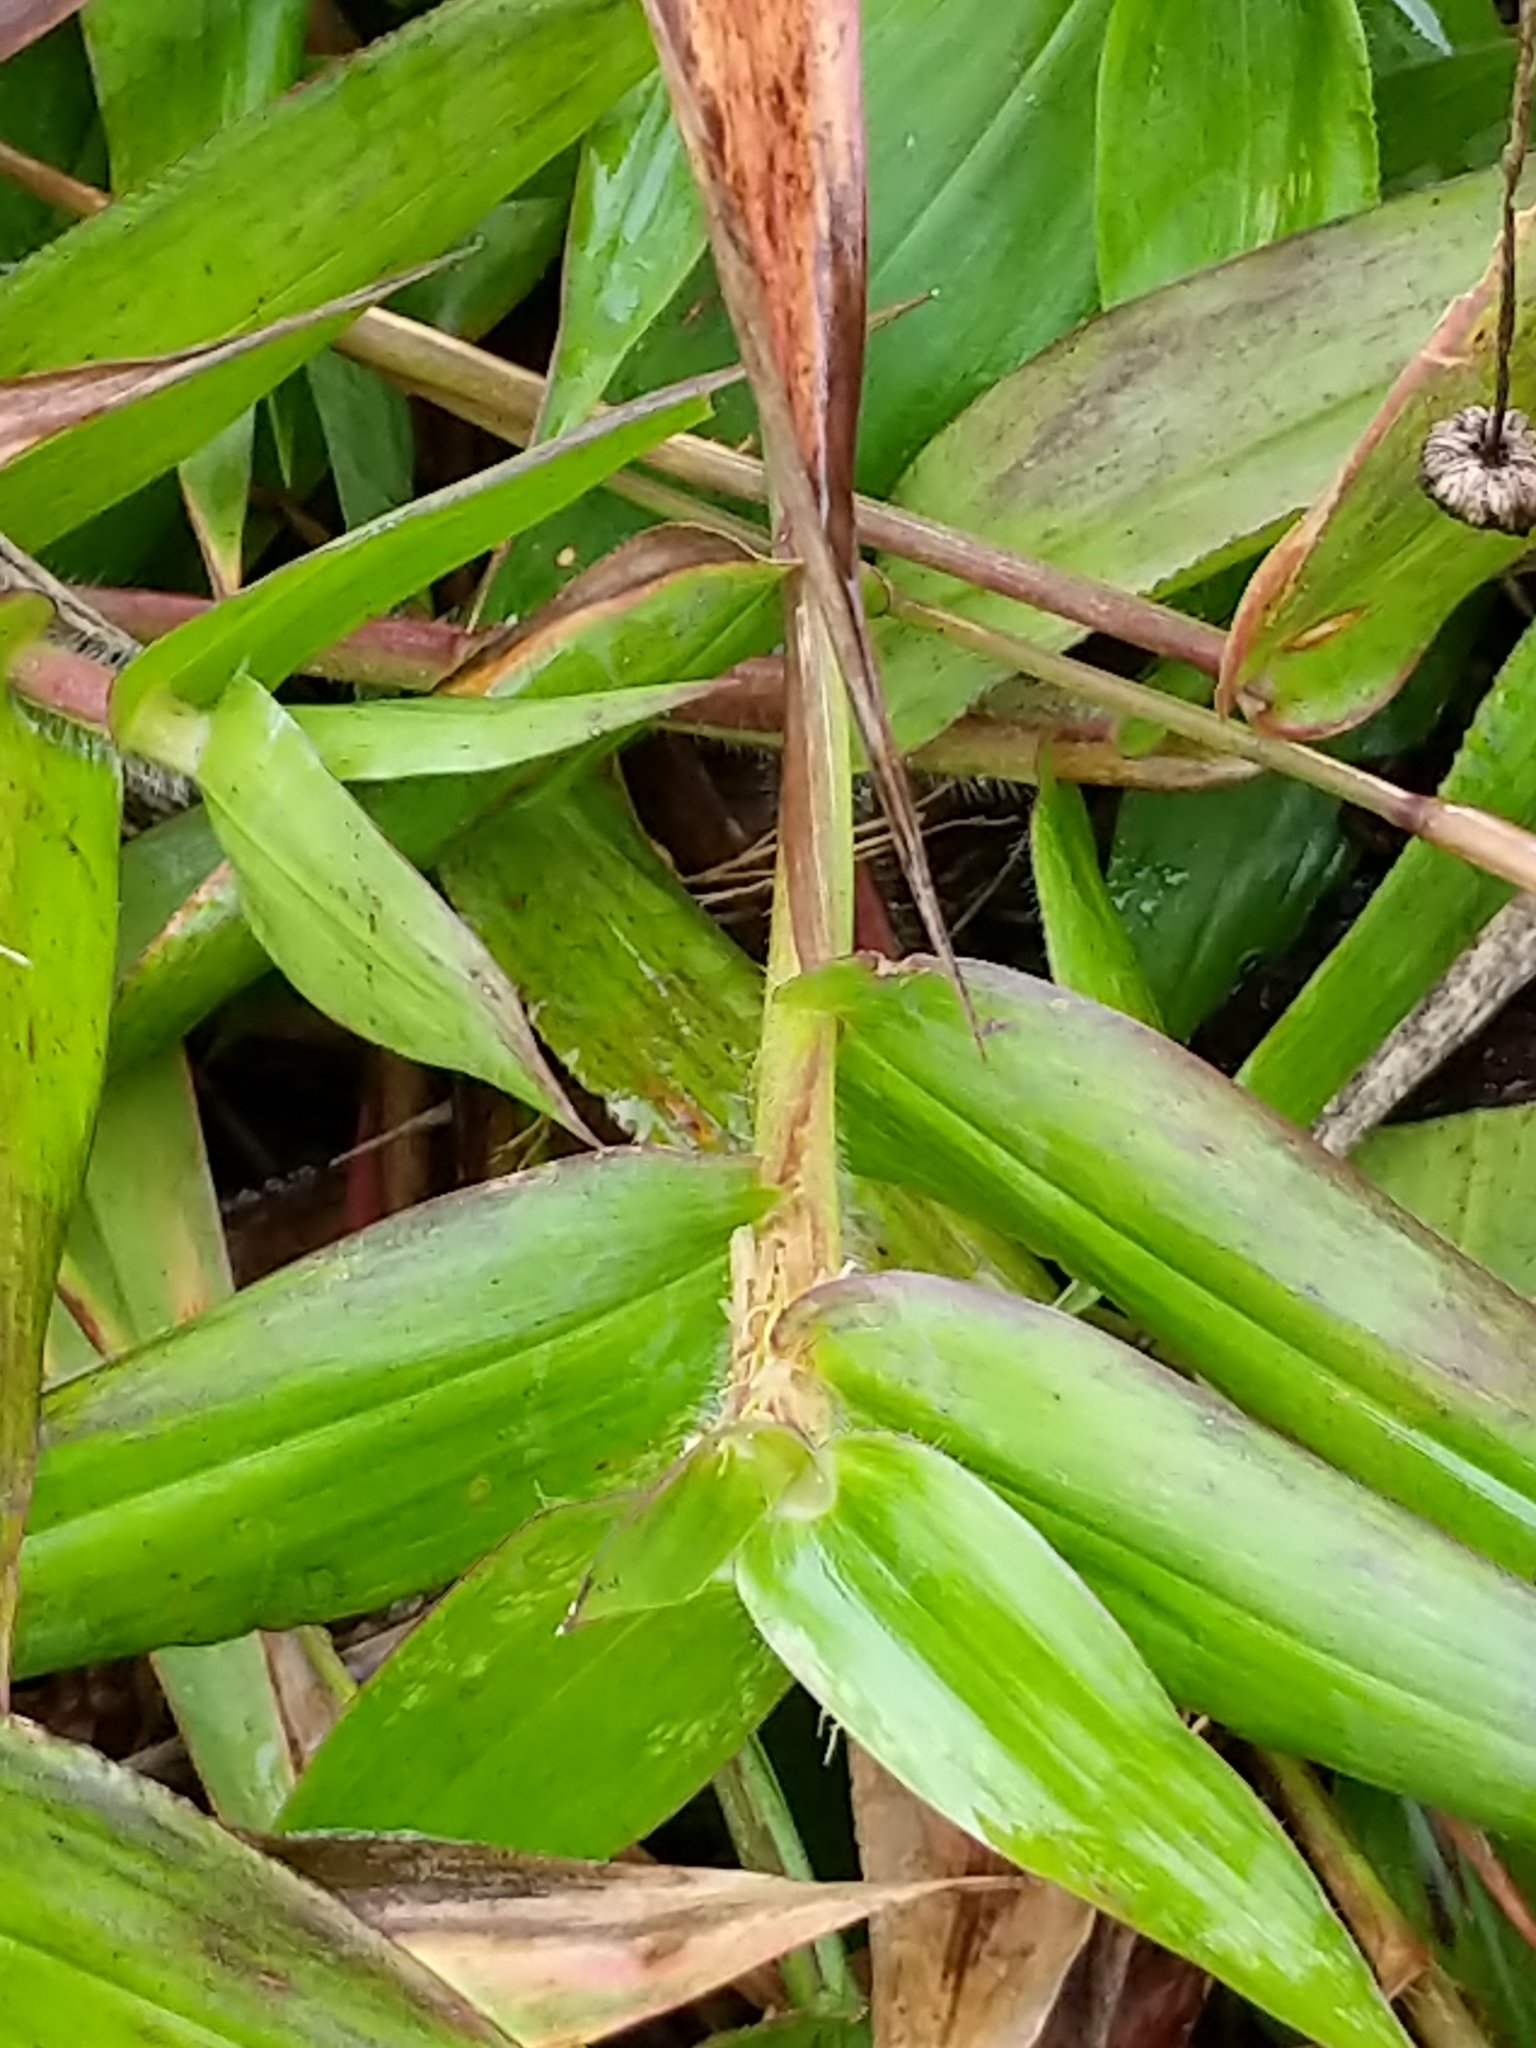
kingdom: Plantae
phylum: Tracheophyta
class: Liliopsida
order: Poales
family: Poaceae
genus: Dichanthelium
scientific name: Dichanthelium clandestinum
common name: Deer-tongue grass
